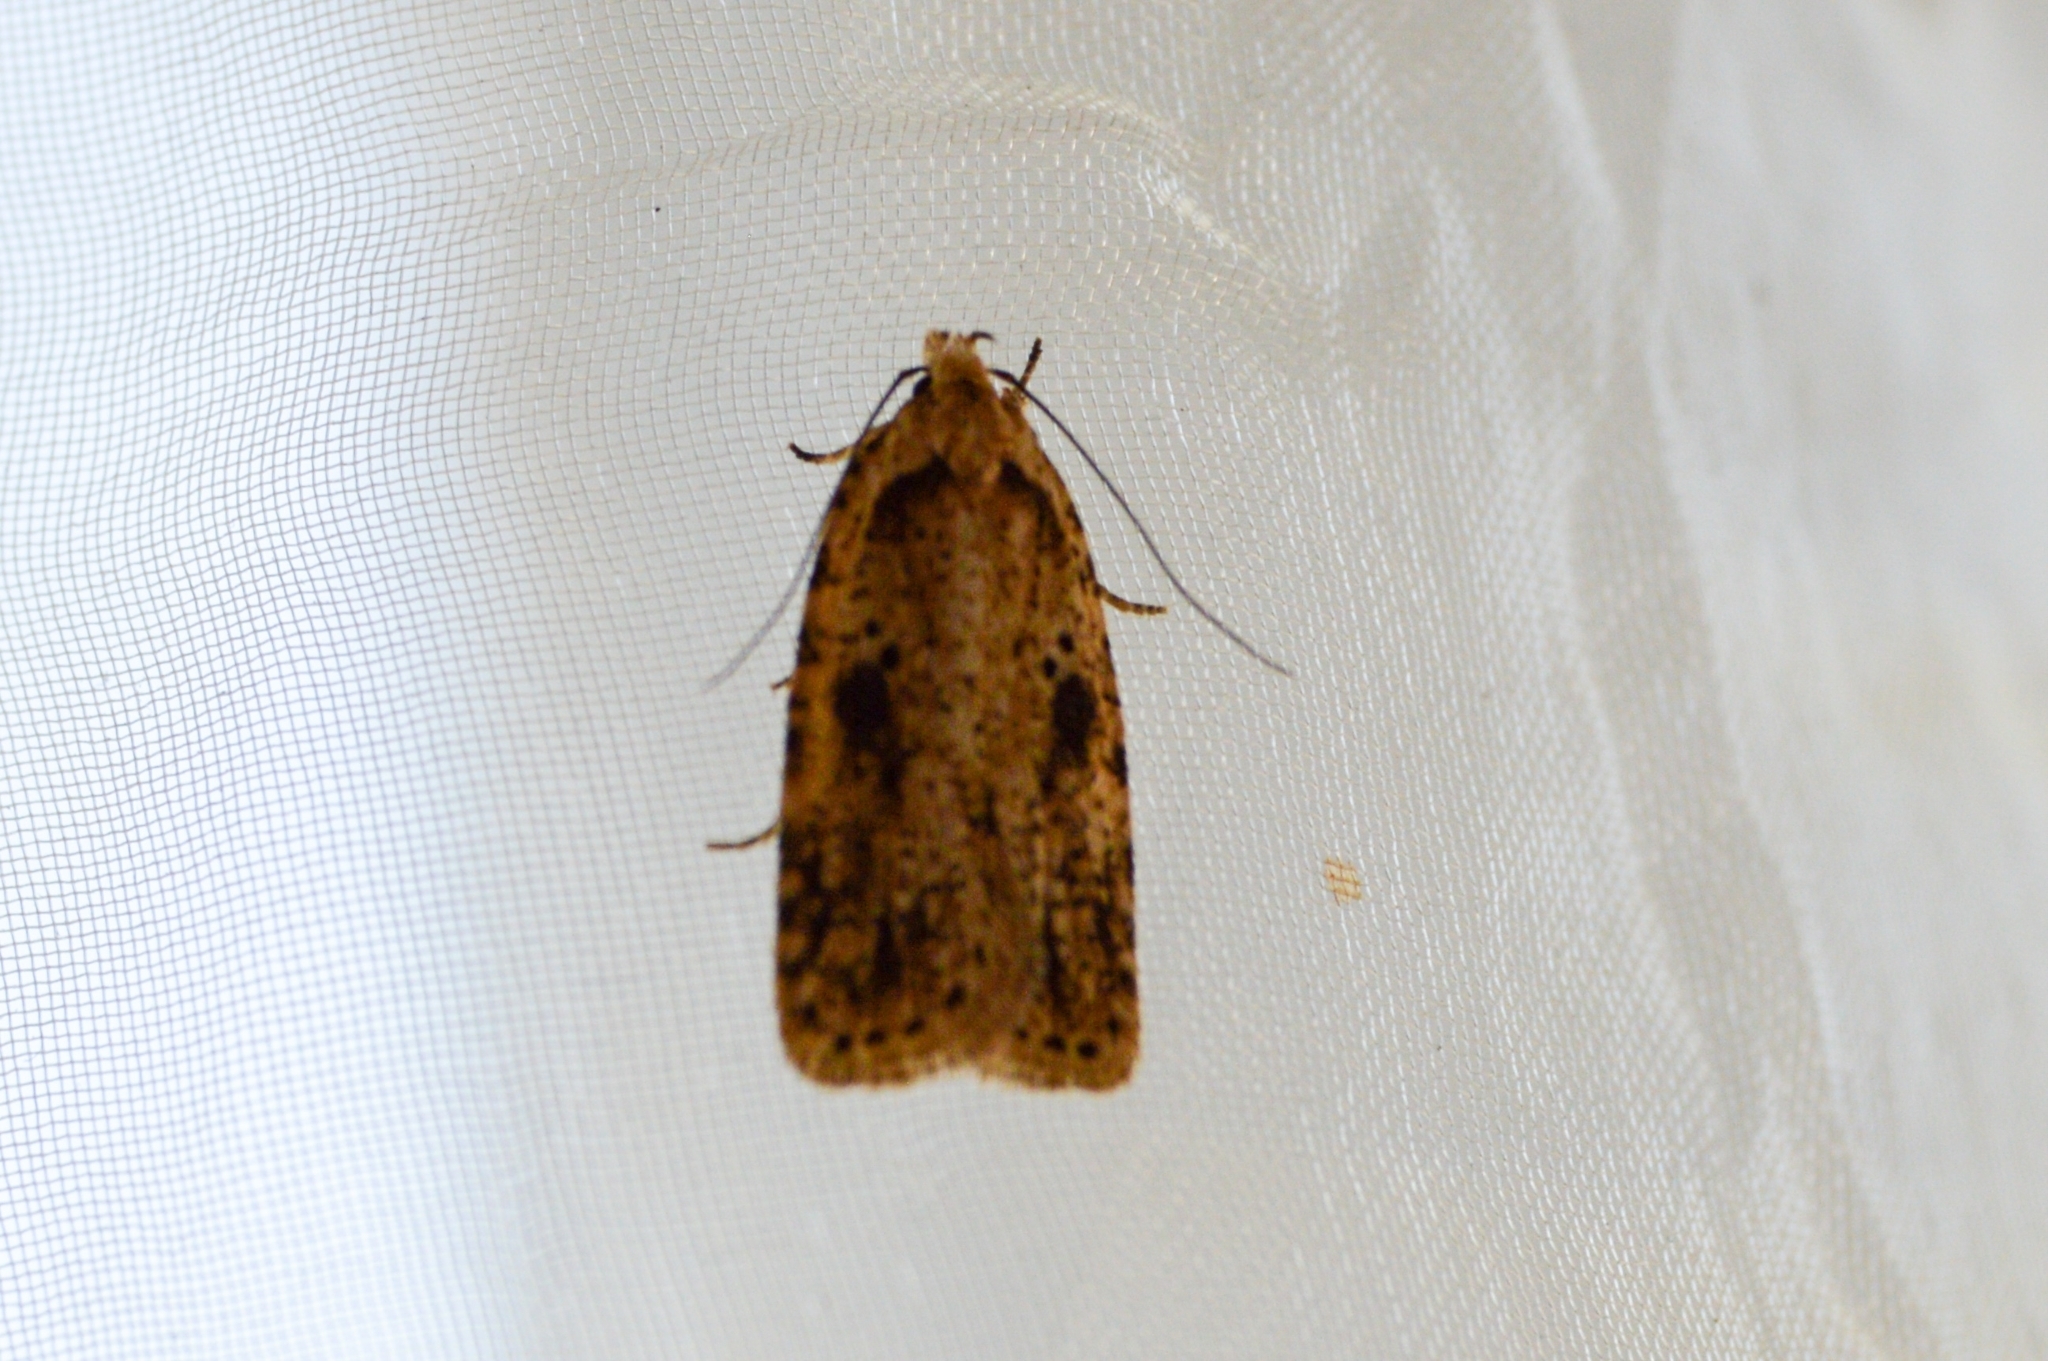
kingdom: Animalia
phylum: Arthropoda
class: Insecta
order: Lepidoptera
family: Depressariidae
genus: Agonopterix
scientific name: Agonopterix arenella
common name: Brindled flat-body
